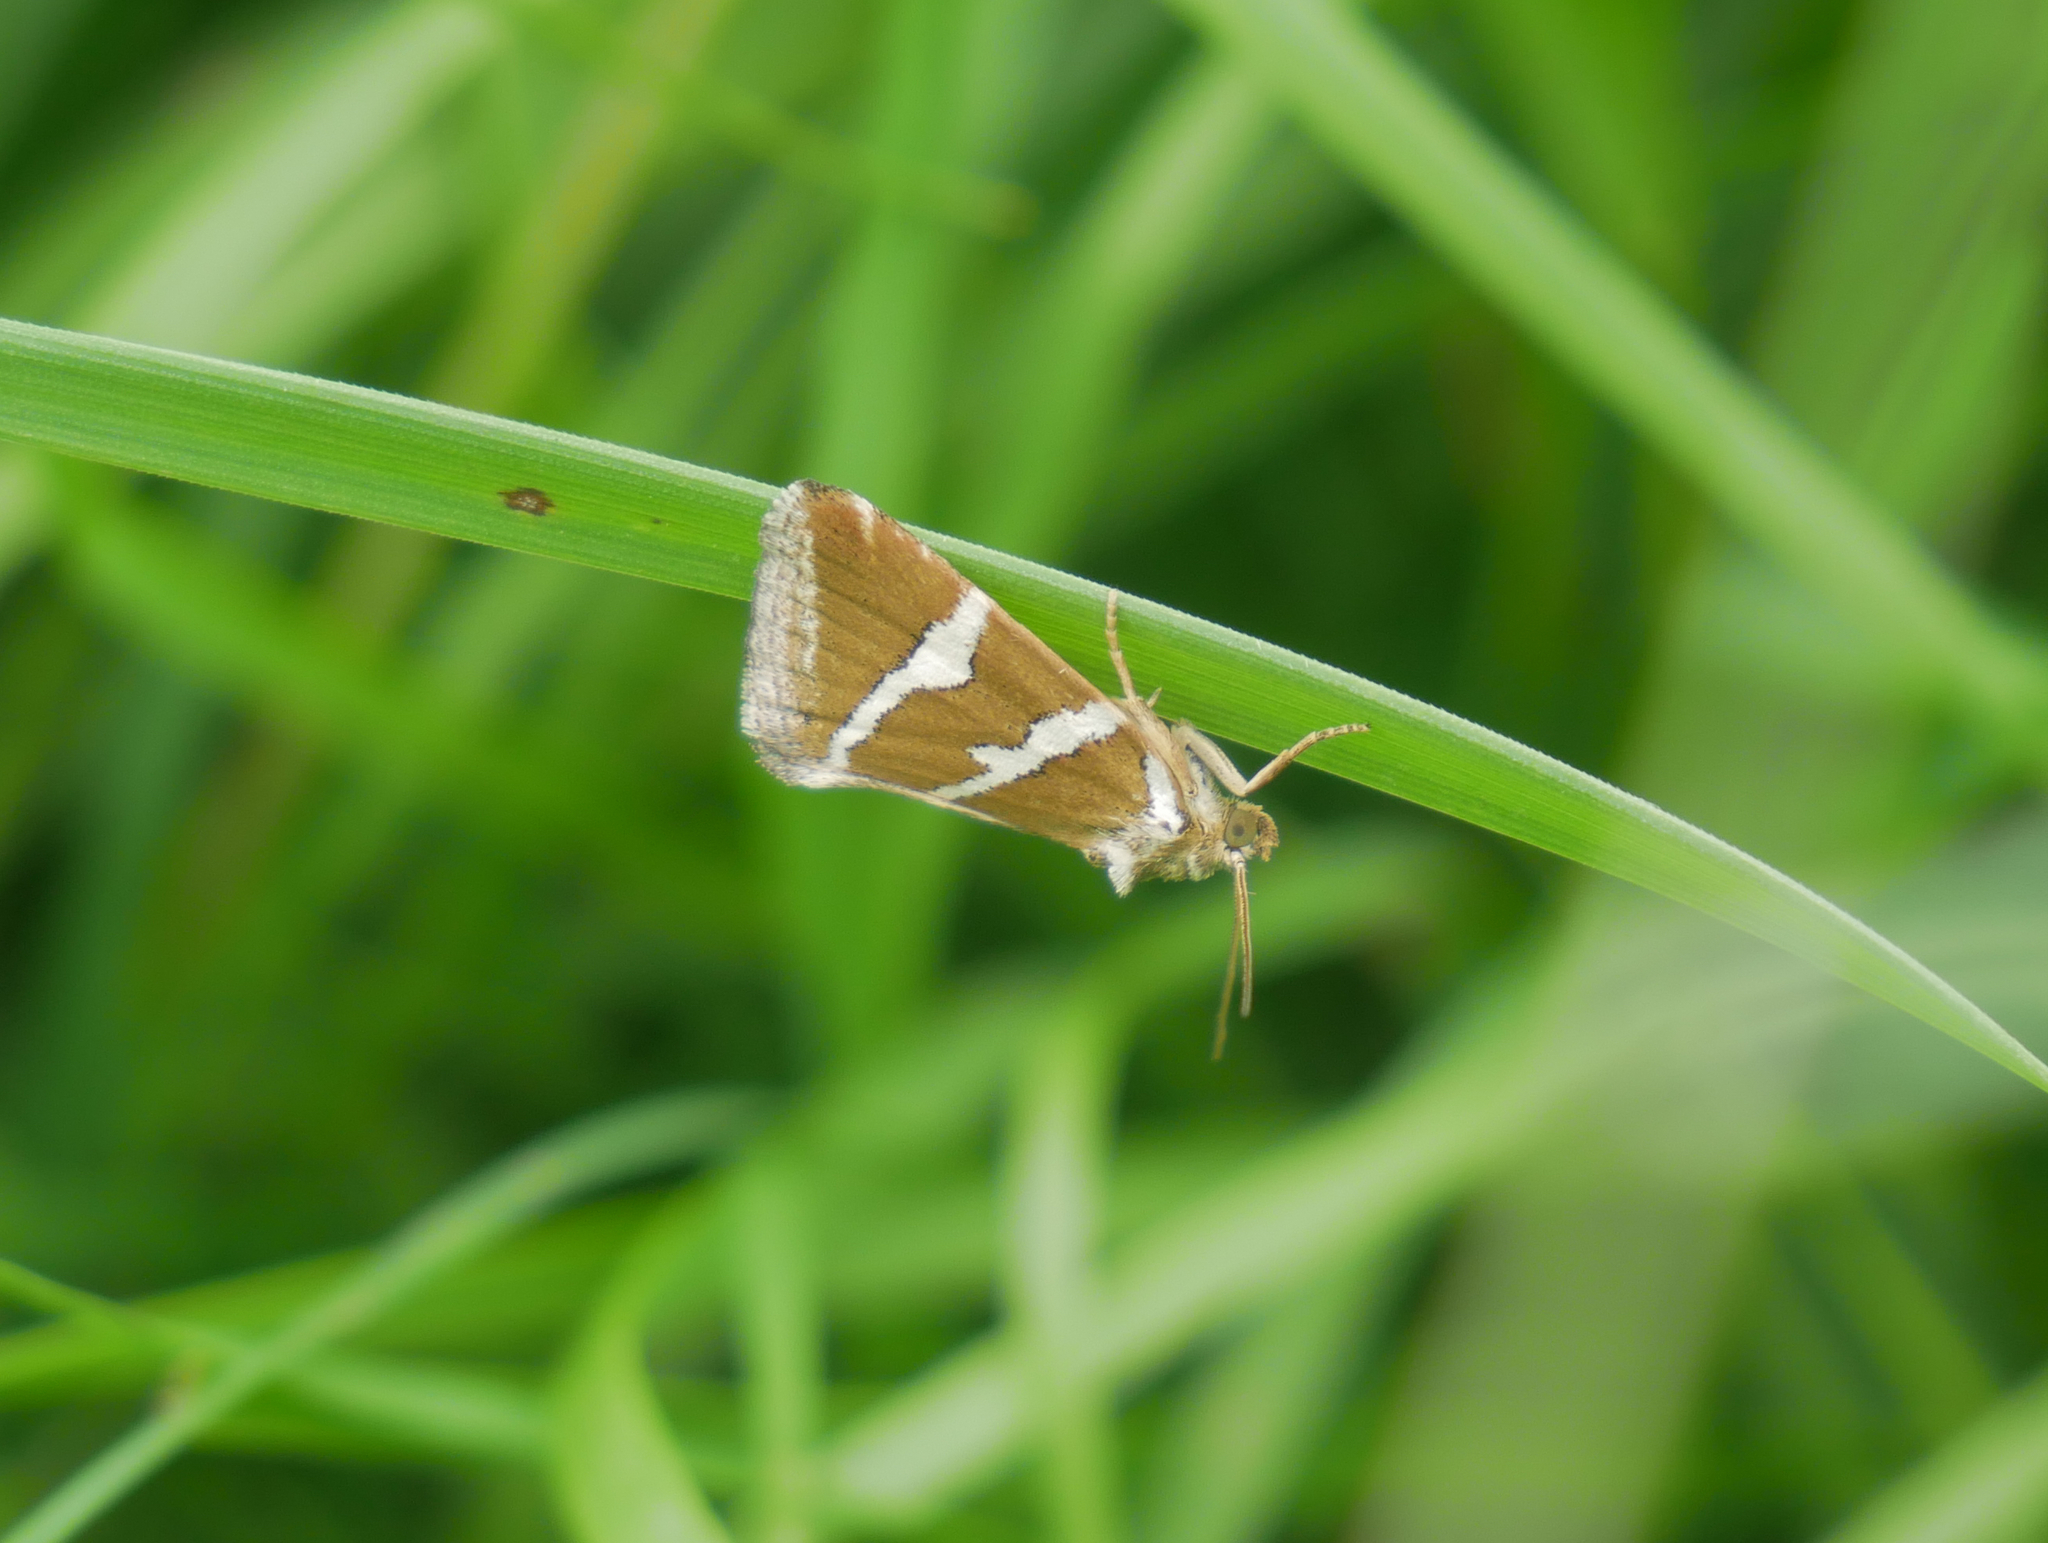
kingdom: Animalia
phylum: Arthropoda
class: Insecta
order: Lepidoptera
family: Noctuidae
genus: Deltote
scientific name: Deltote bankiana
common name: Silver barred
